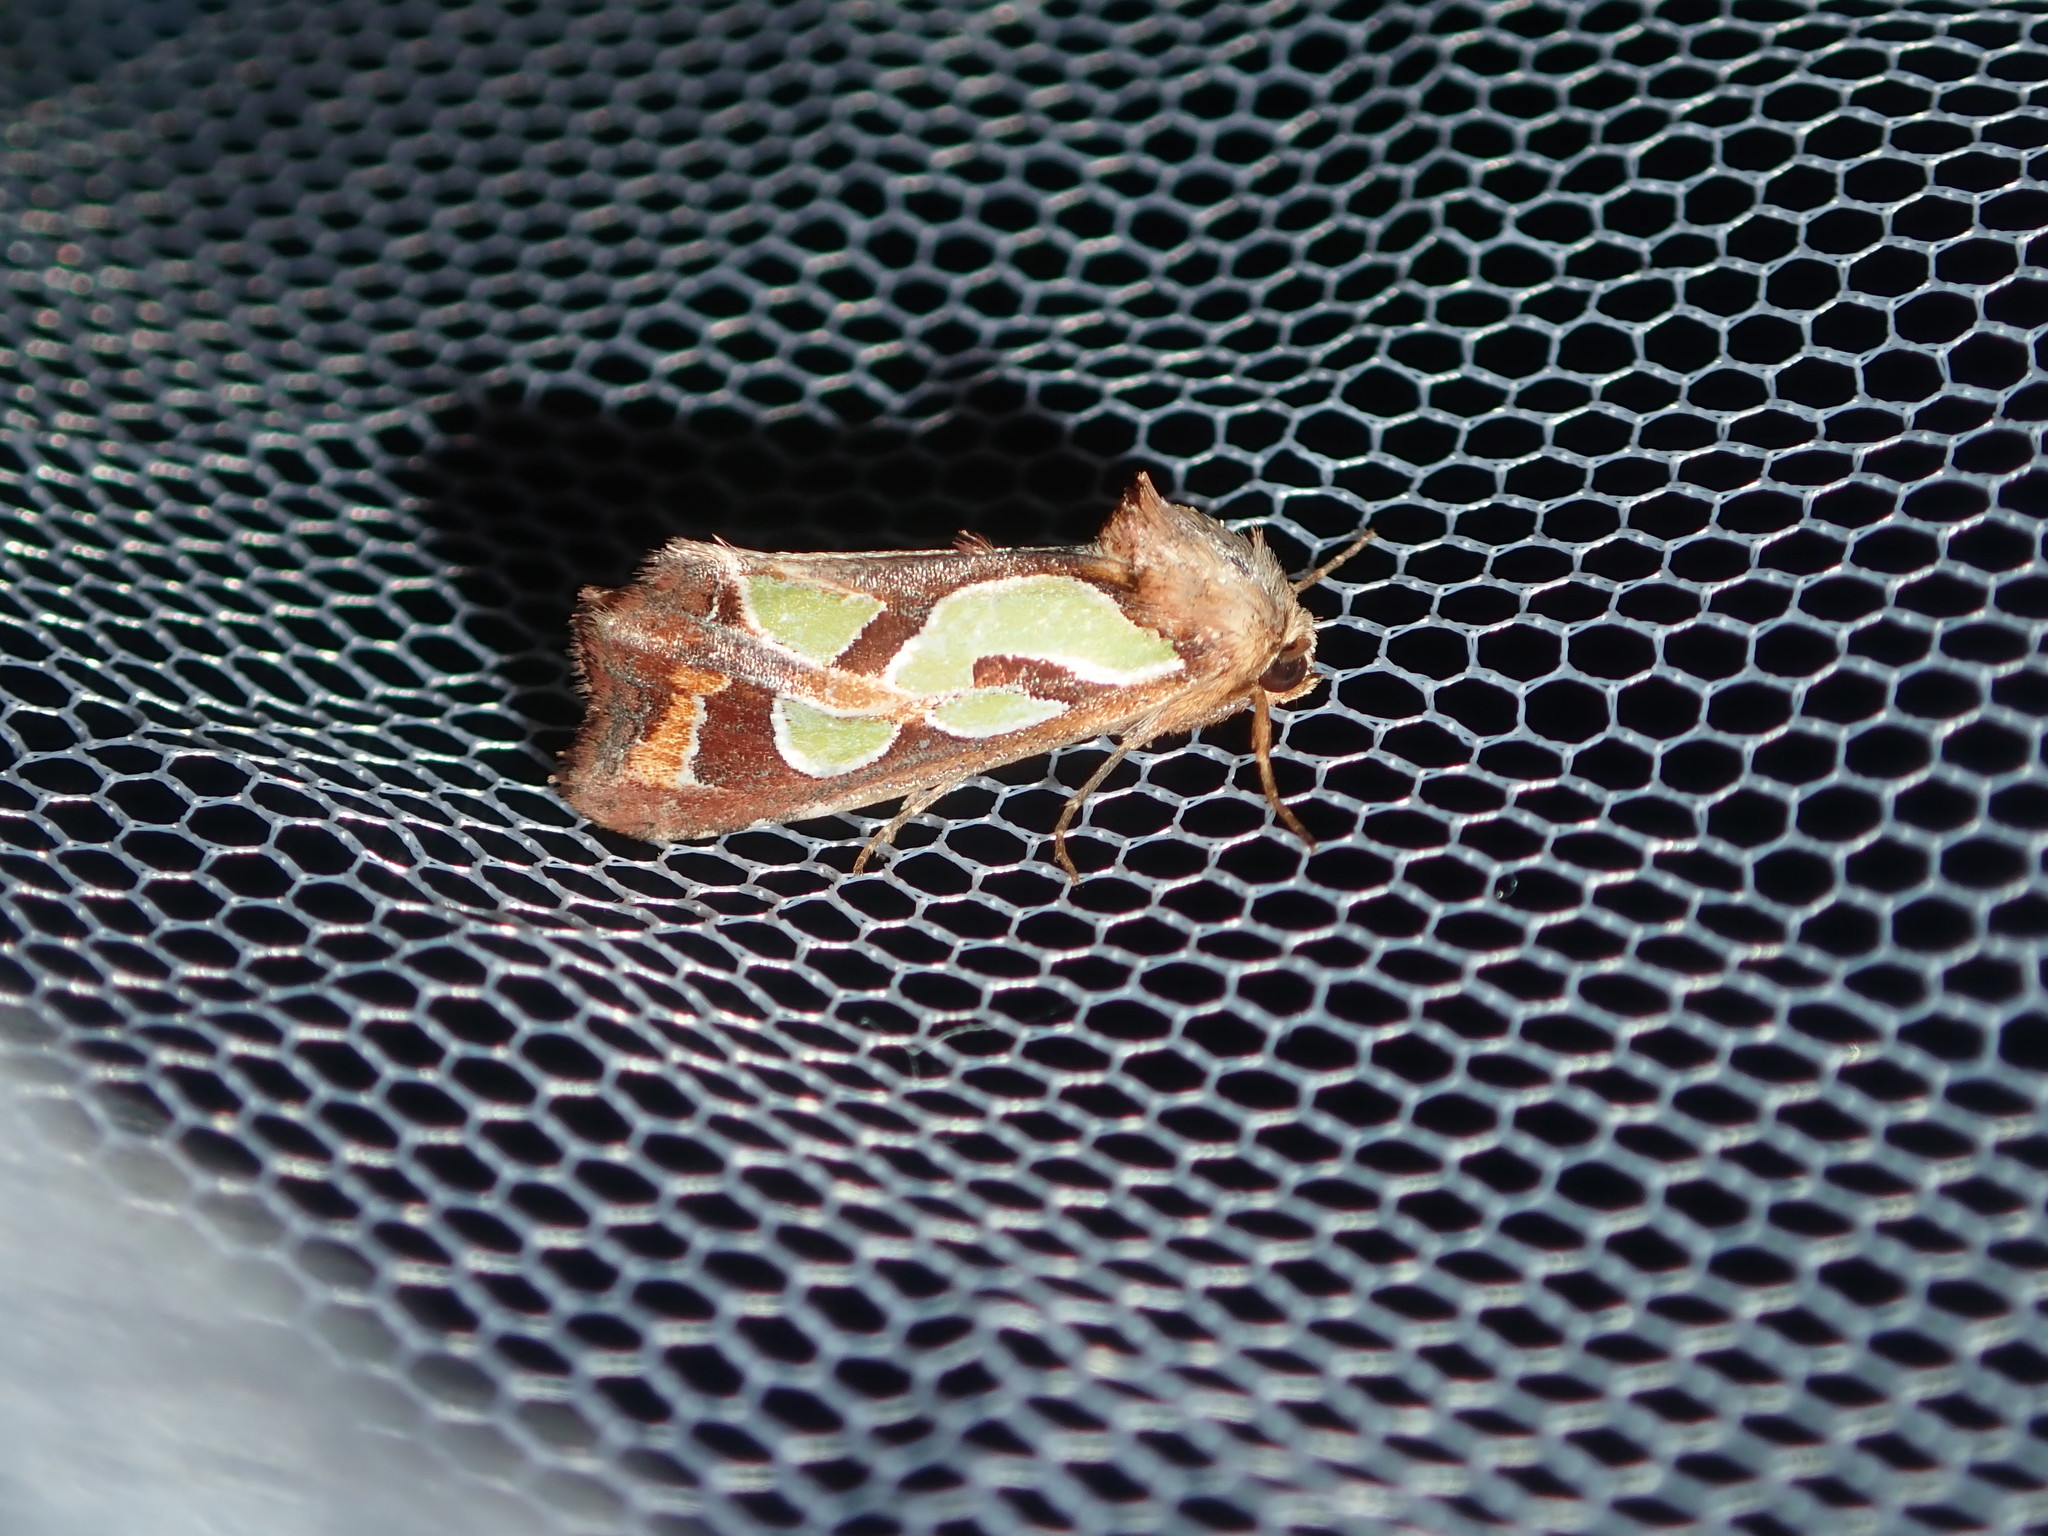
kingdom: Animalia
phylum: Arthropoda
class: Insecta
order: Lepidoptera
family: Noctuidae
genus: Cosmodes
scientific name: Cosmodes elegans
